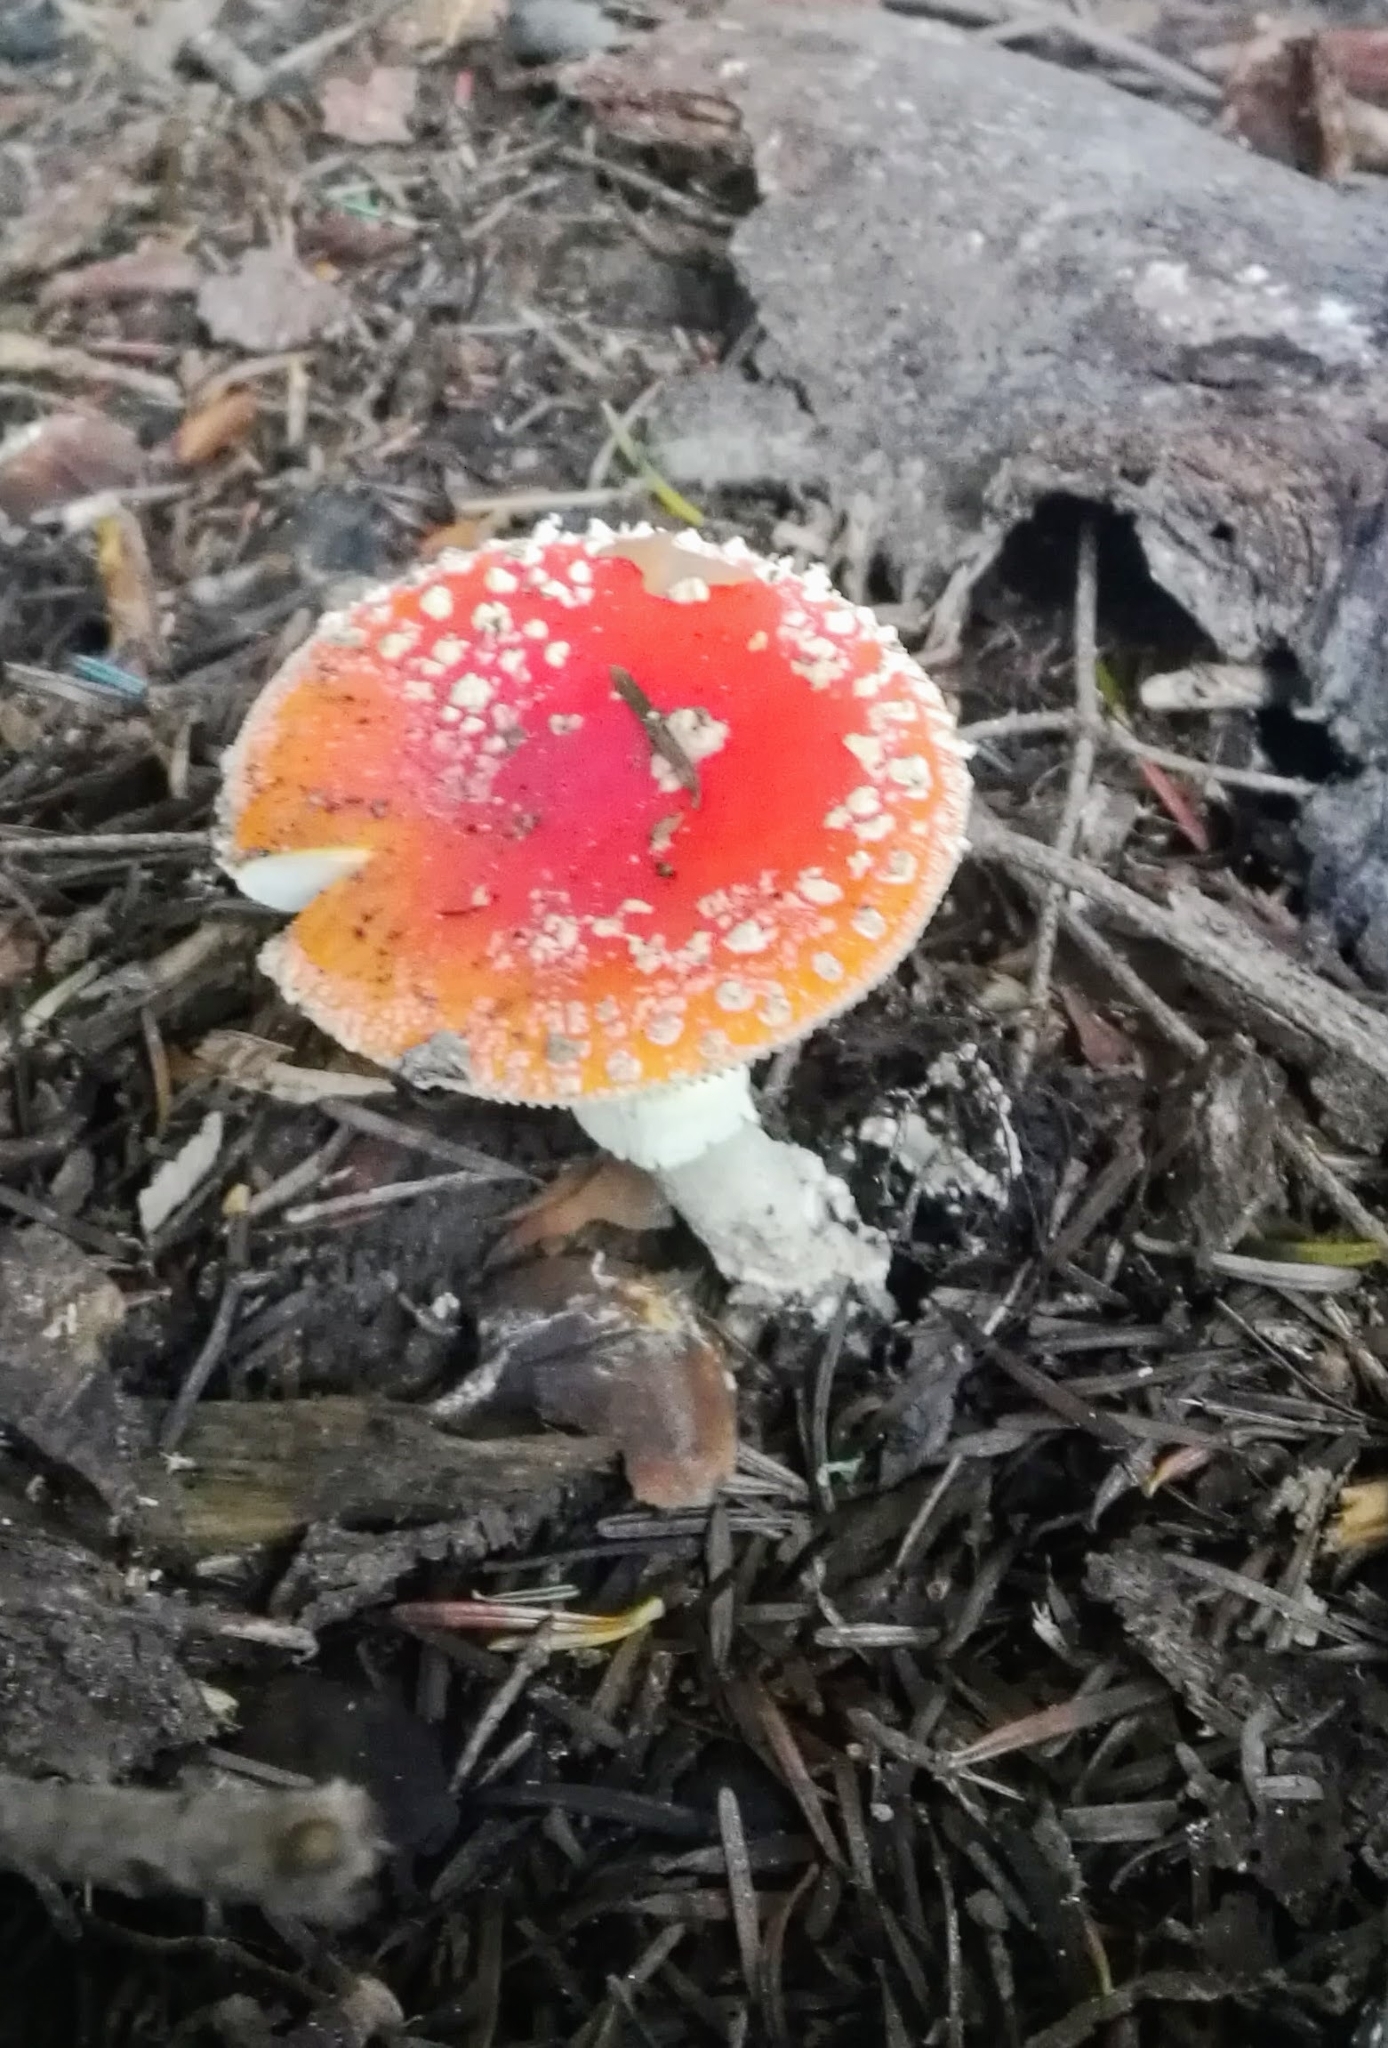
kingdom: Fungi
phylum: Basidiomycota
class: Agaricomycetes
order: Agaricales
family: Amanitaceae
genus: Amanita
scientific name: Amanita muscaria
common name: Fly agaric
